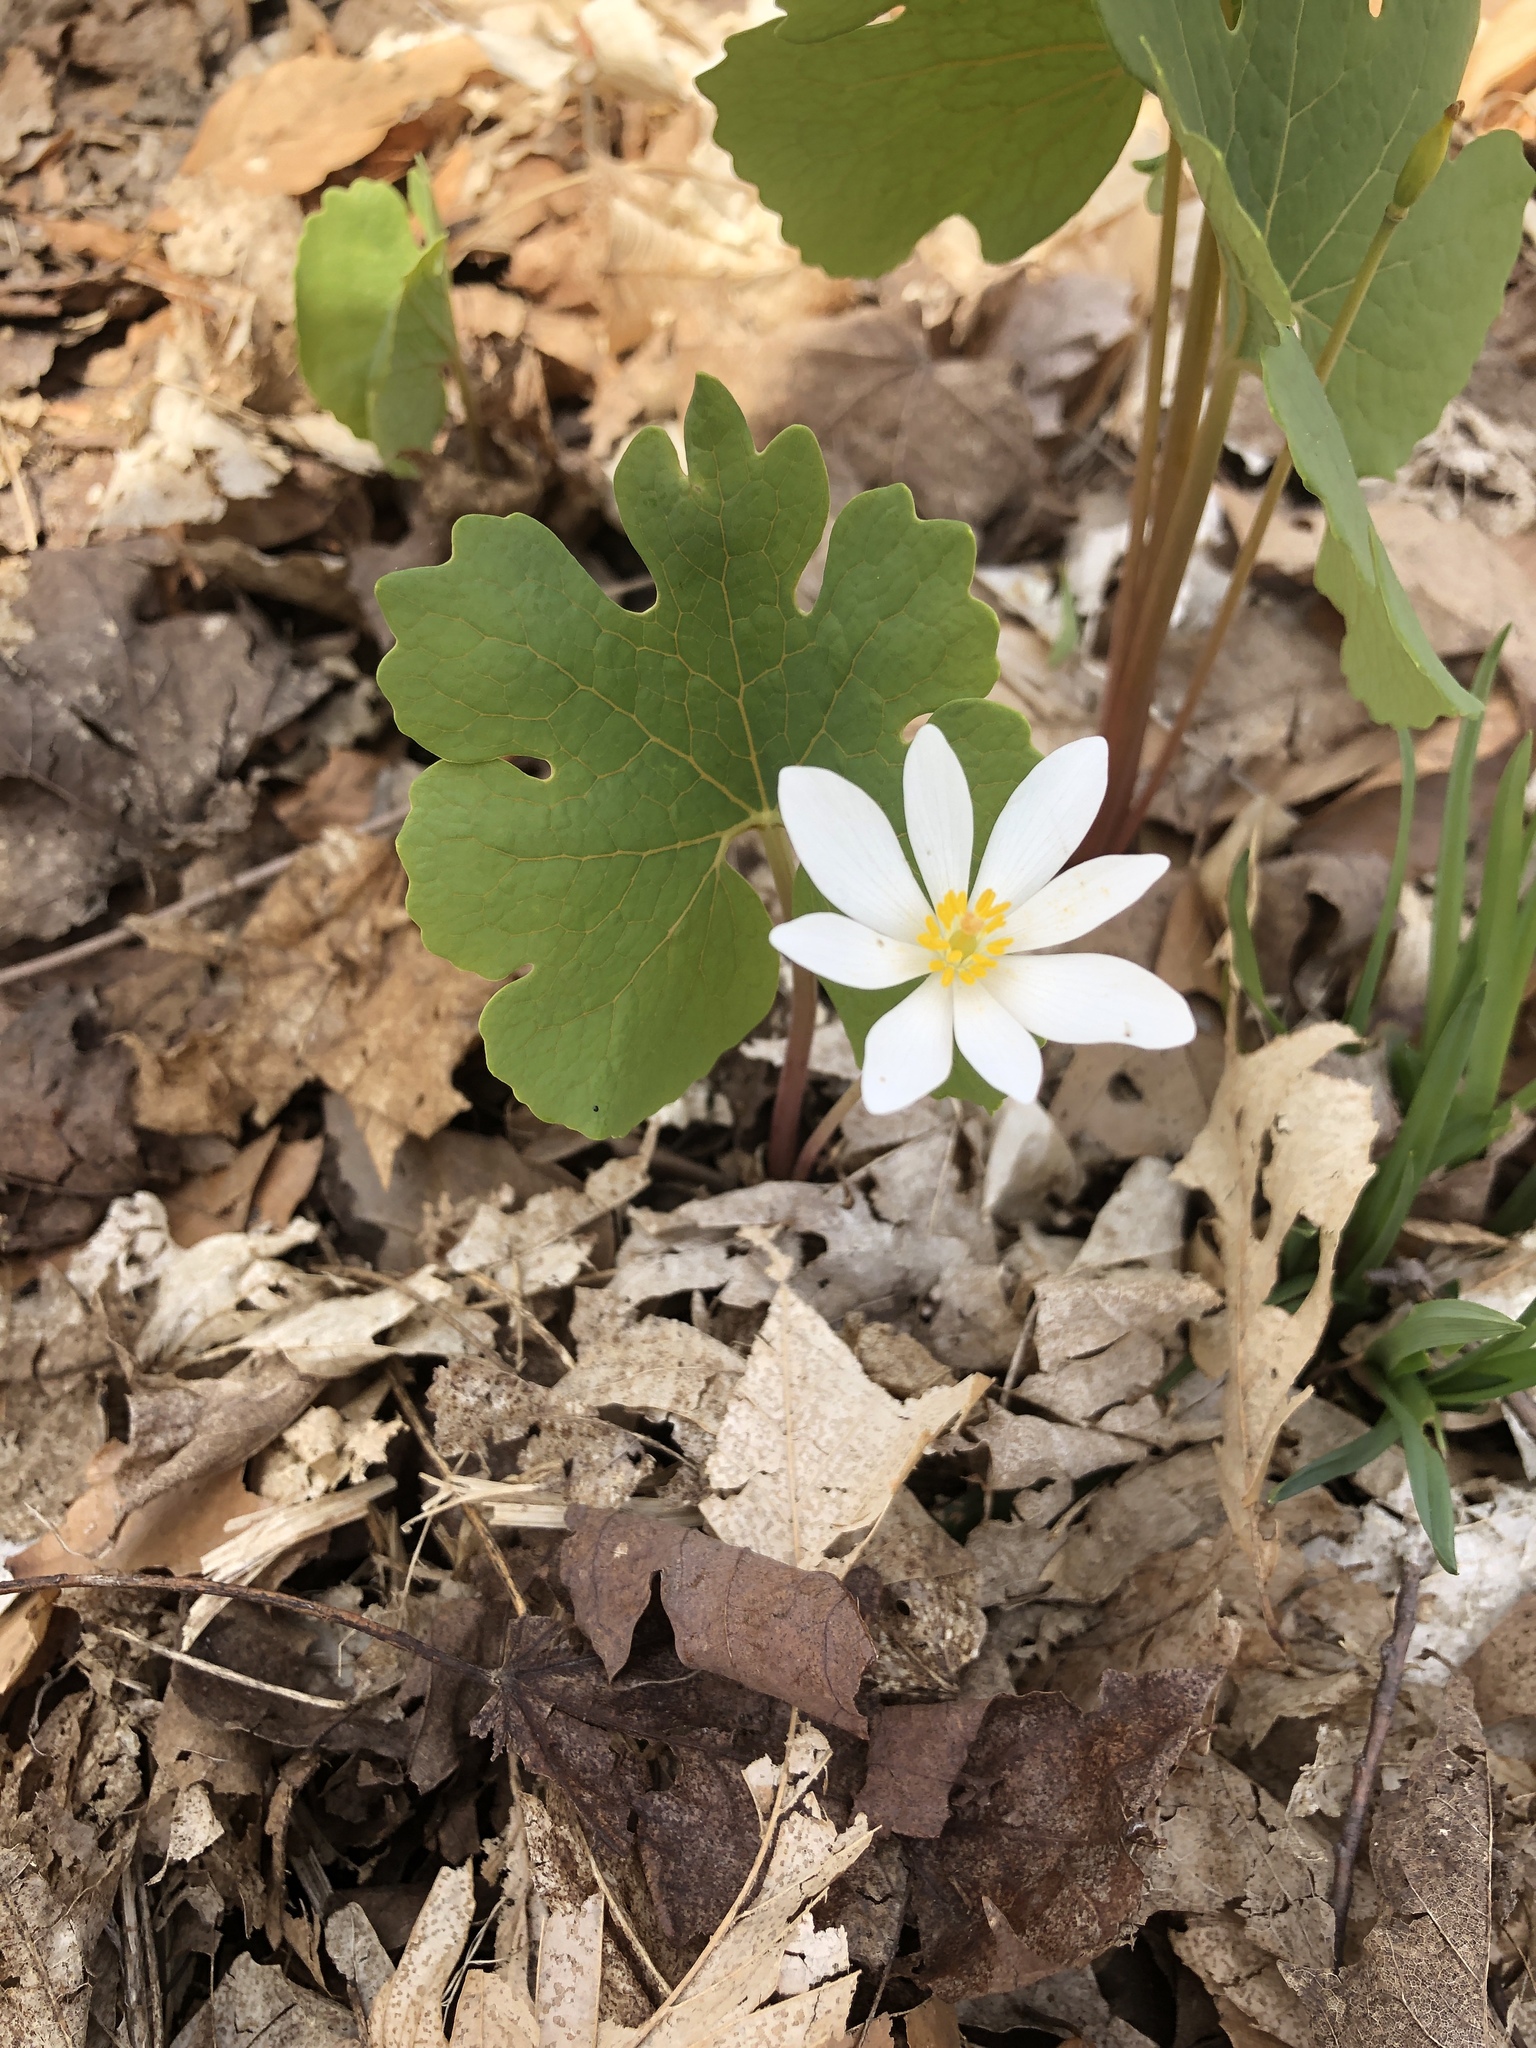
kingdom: Plantae
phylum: Tracheophyta
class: Magnoliopsida
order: Ranunculales
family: Papaveraceae
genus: Sanguinaria
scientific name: Sanguinaria canadensis
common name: Bloodroot
